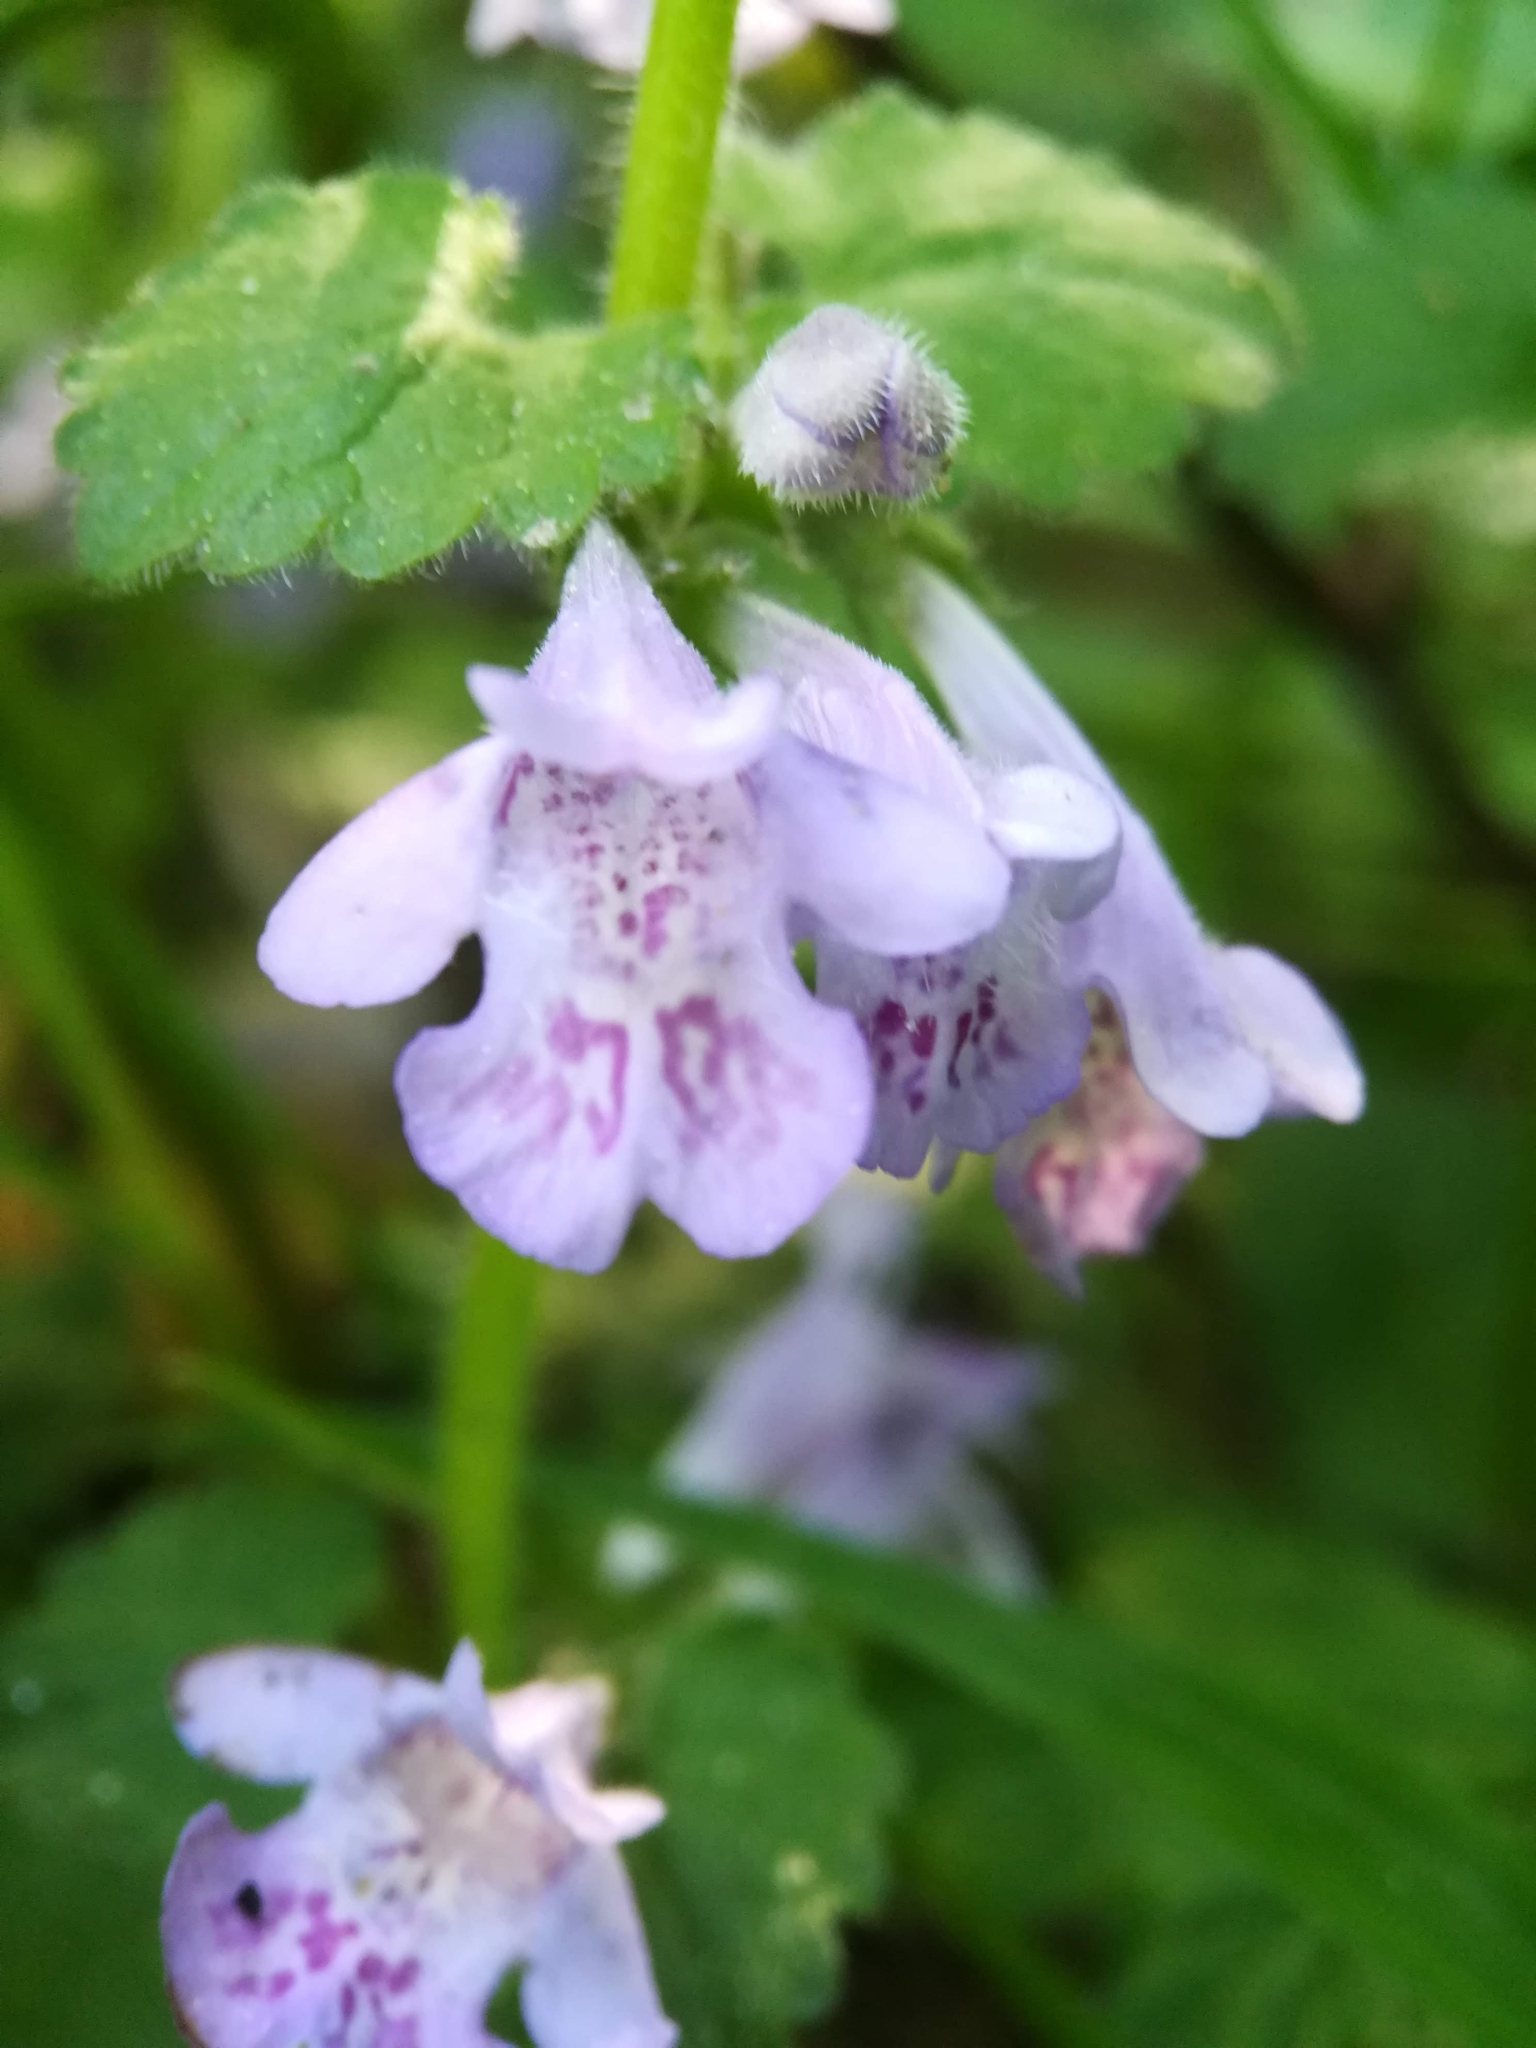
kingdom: Plantae
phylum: Tracheophyta
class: Magnoliopsida
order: Lamiales
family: Lamiaceae
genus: Glechoma
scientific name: Glechoma hederacea
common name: Ground ivy
